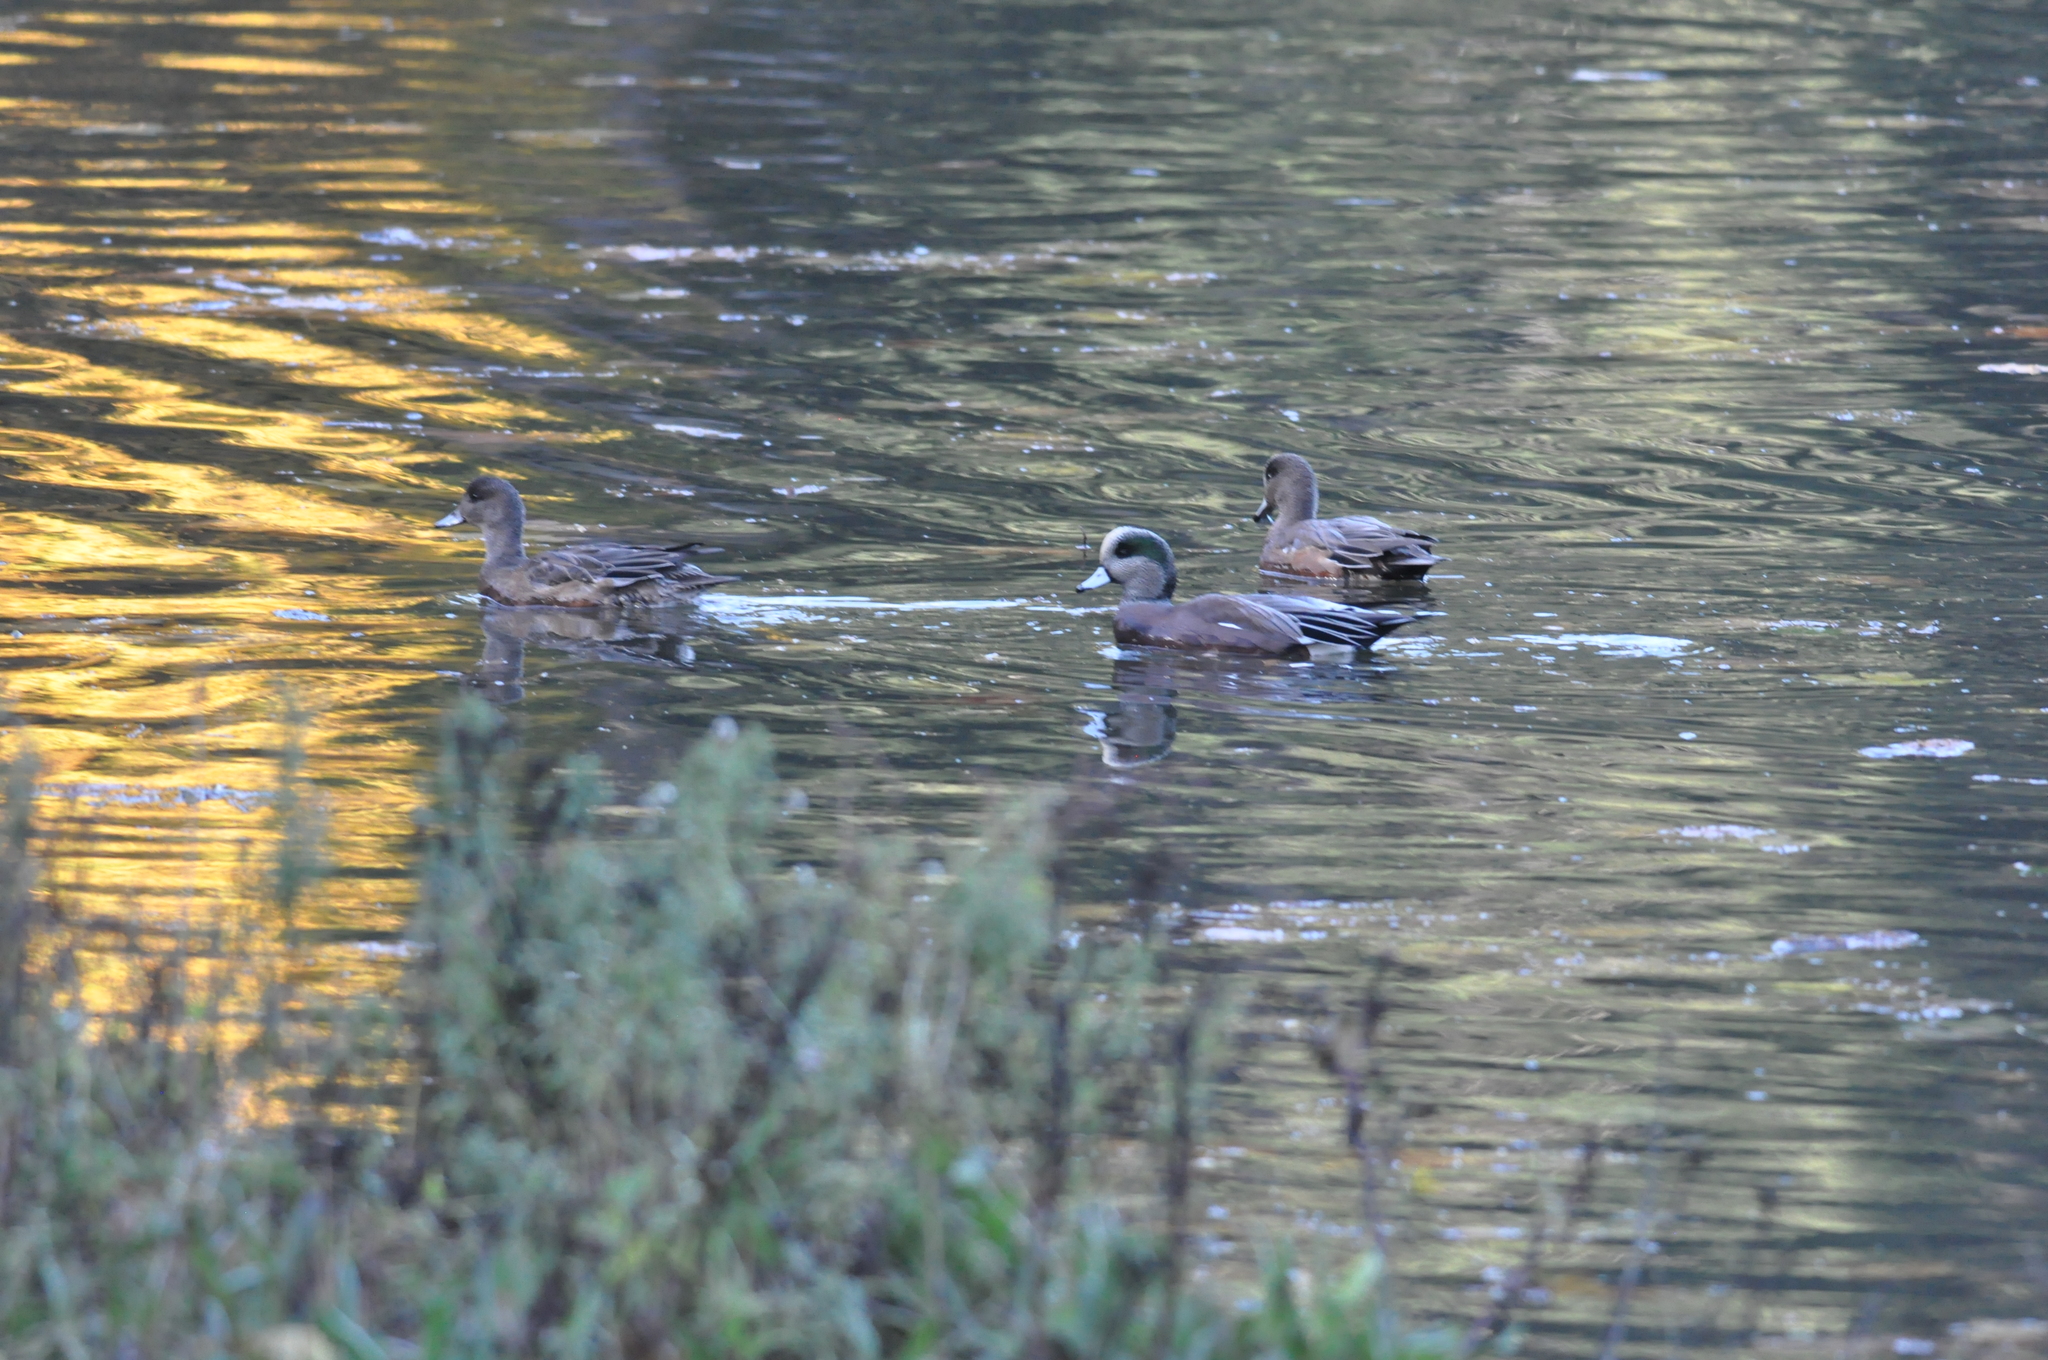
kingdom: Animalia
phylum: Chordata
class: Aves
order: Anseriformes
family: Anatidae
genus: Mareca
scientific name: Mareca americana
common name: American wigeon
